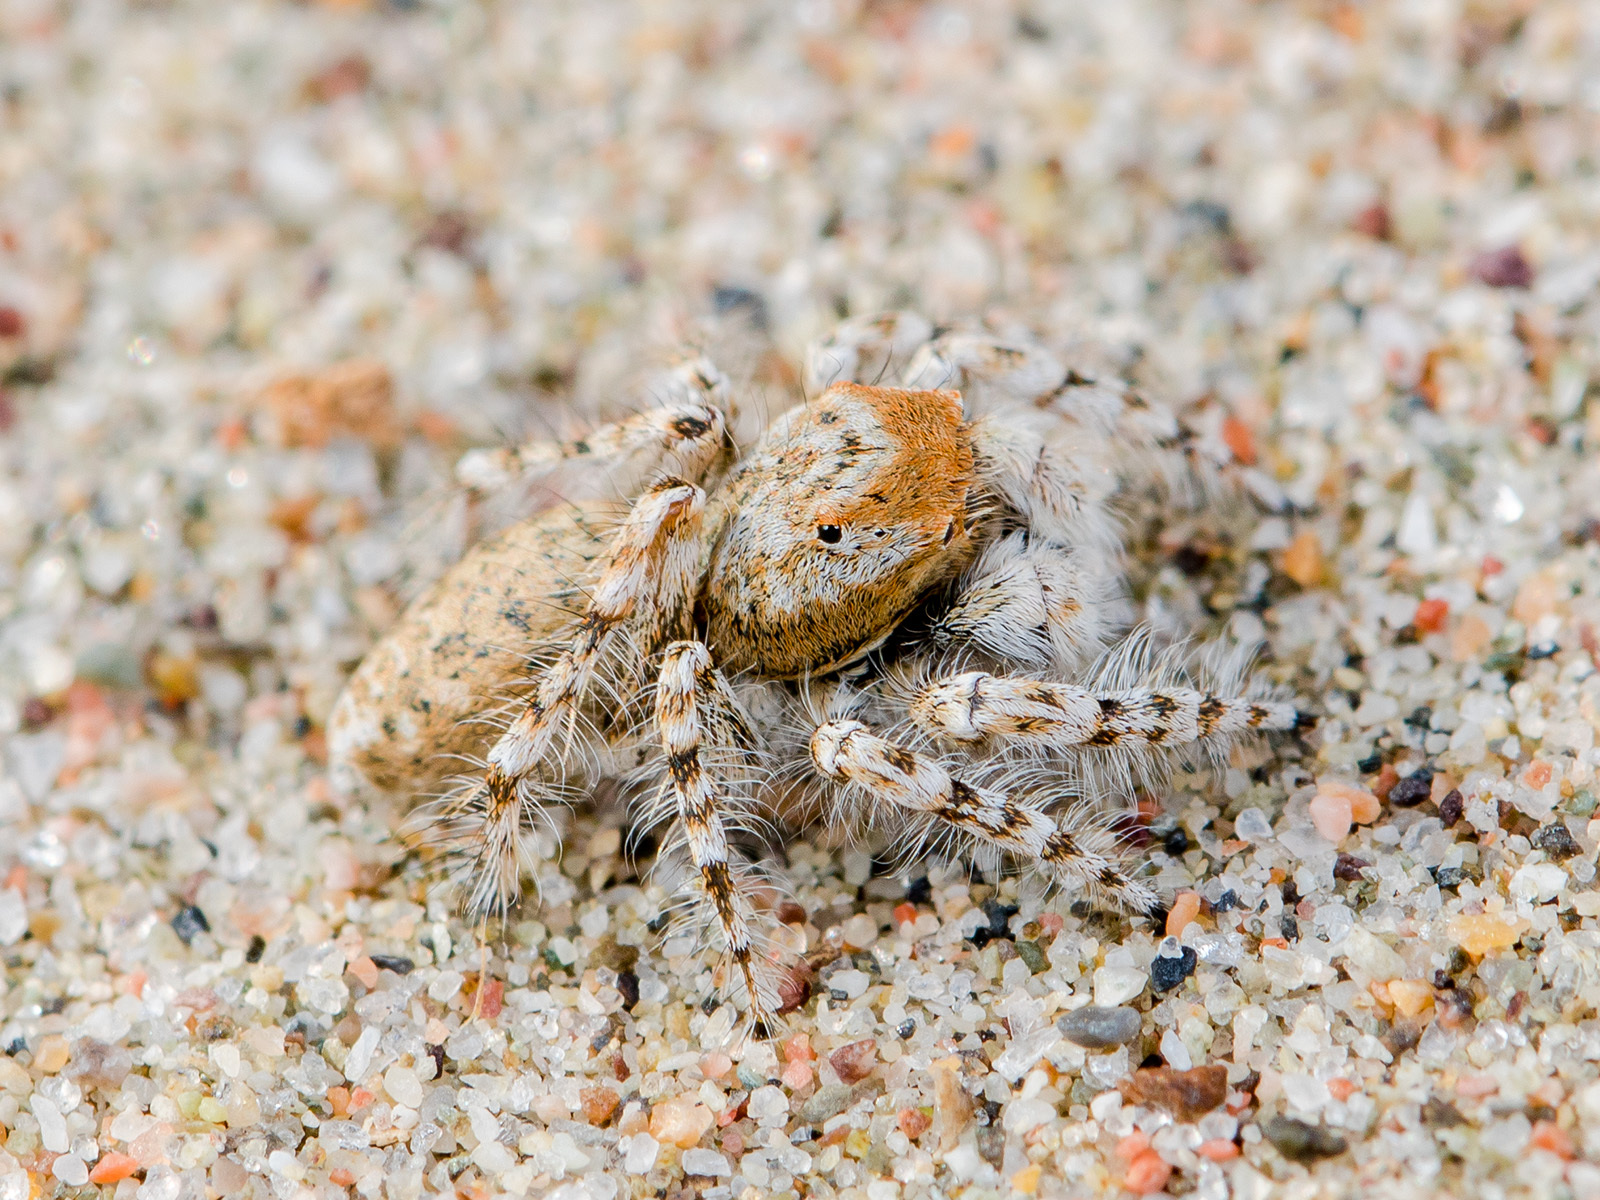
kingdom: Animalia
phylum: Arthropoda
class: Arachnida
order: Araneae
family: Salticidae
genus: Yllenus
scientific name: Yllenus uiguricus
